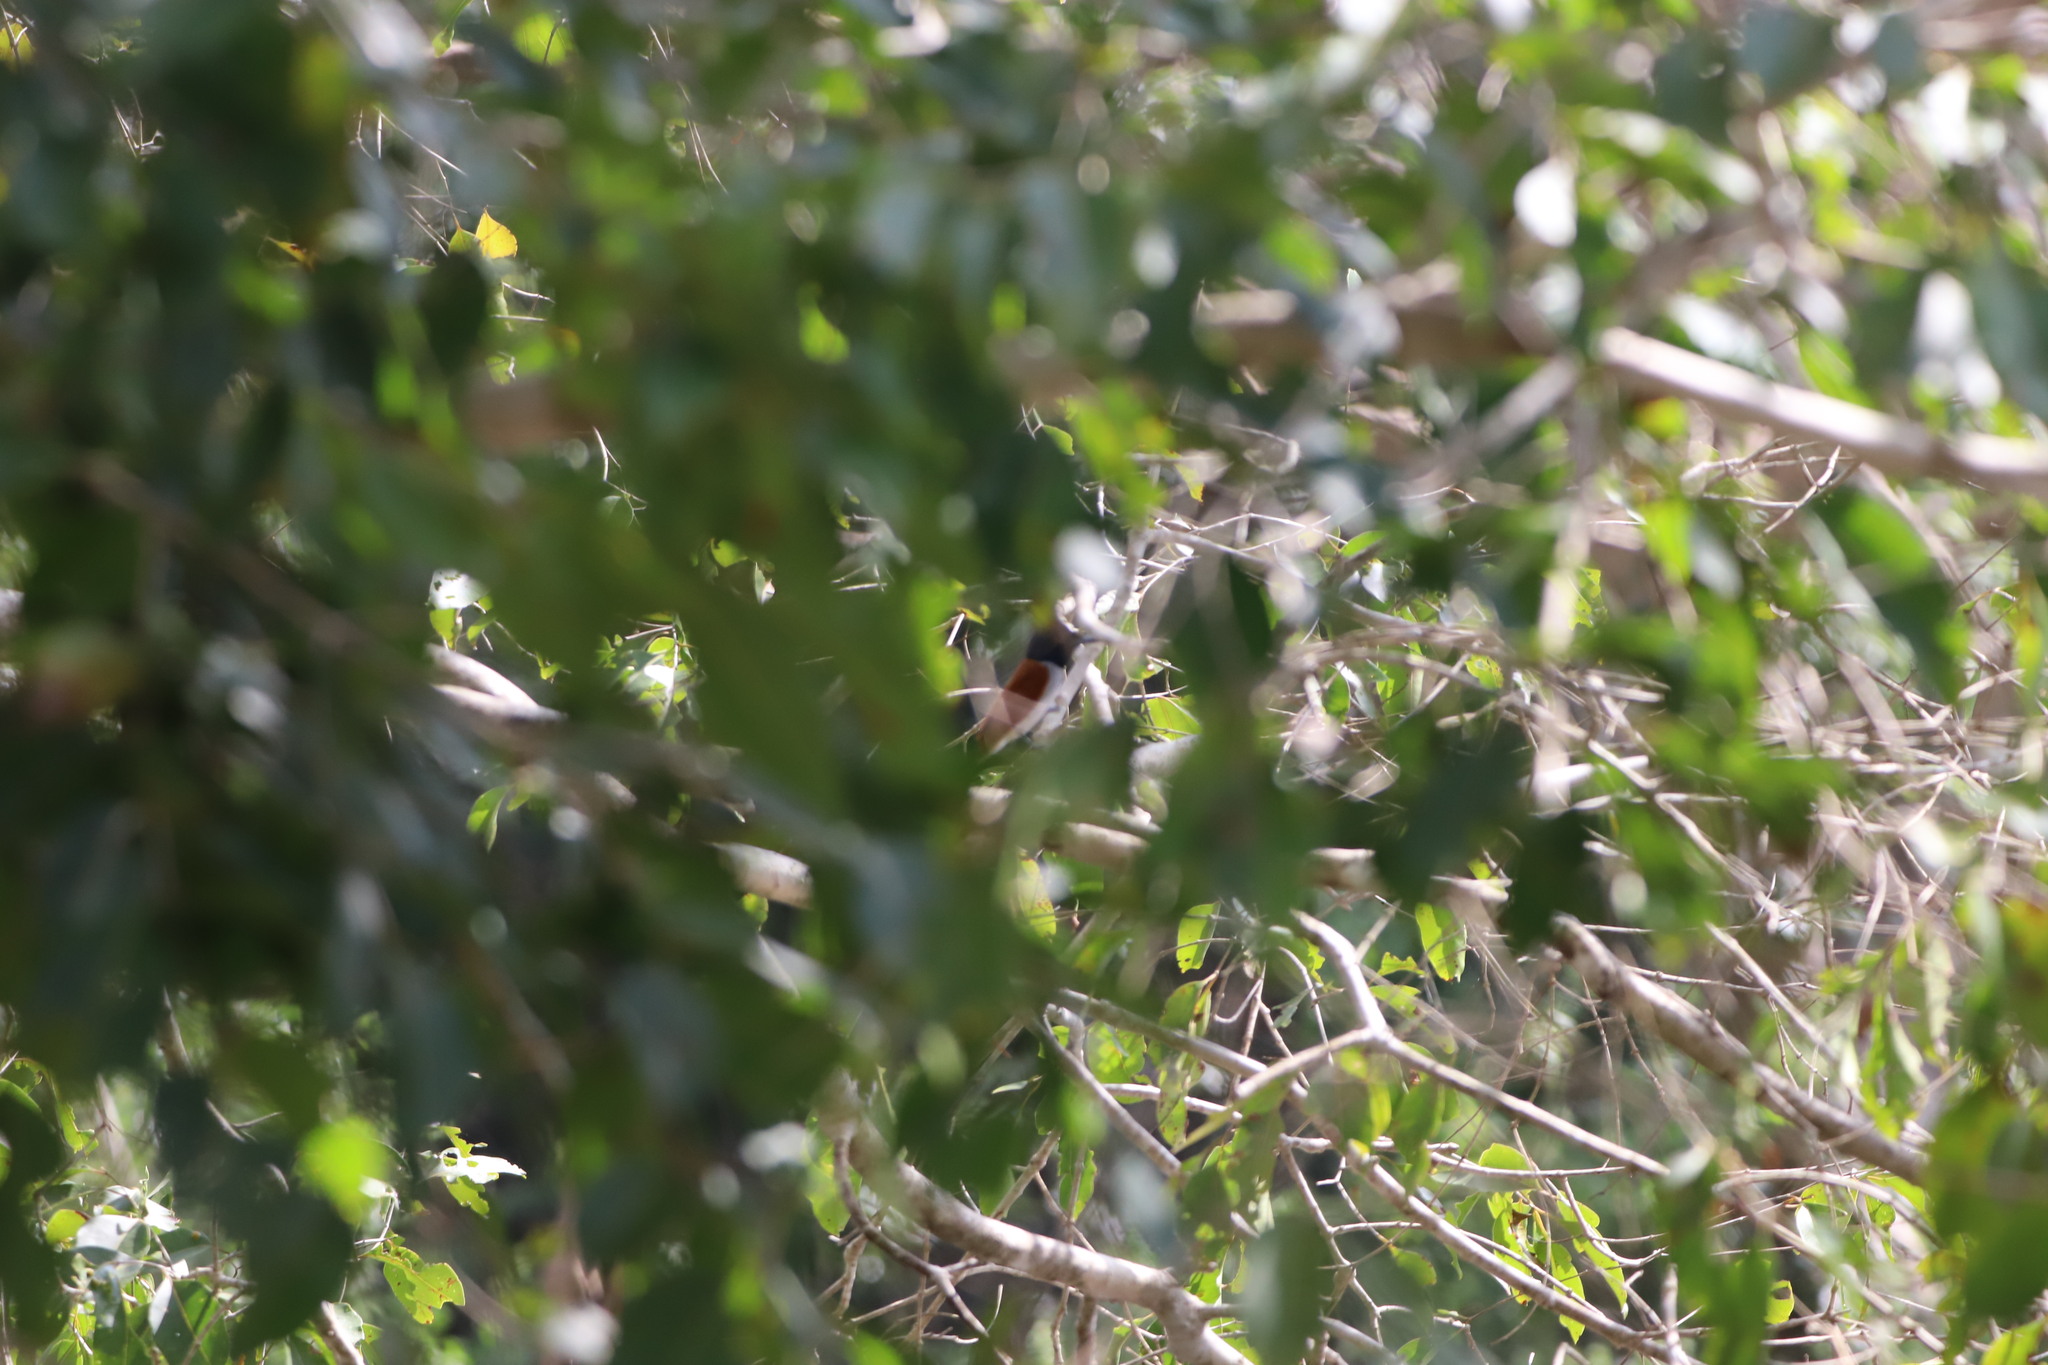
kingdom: Animalia
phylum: Chordata
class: Aves
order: Passeriformes
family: Monarchidae
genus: Terpsiphone
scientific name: Terpsiphone paradisi
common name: Indian paradise flycatcher
